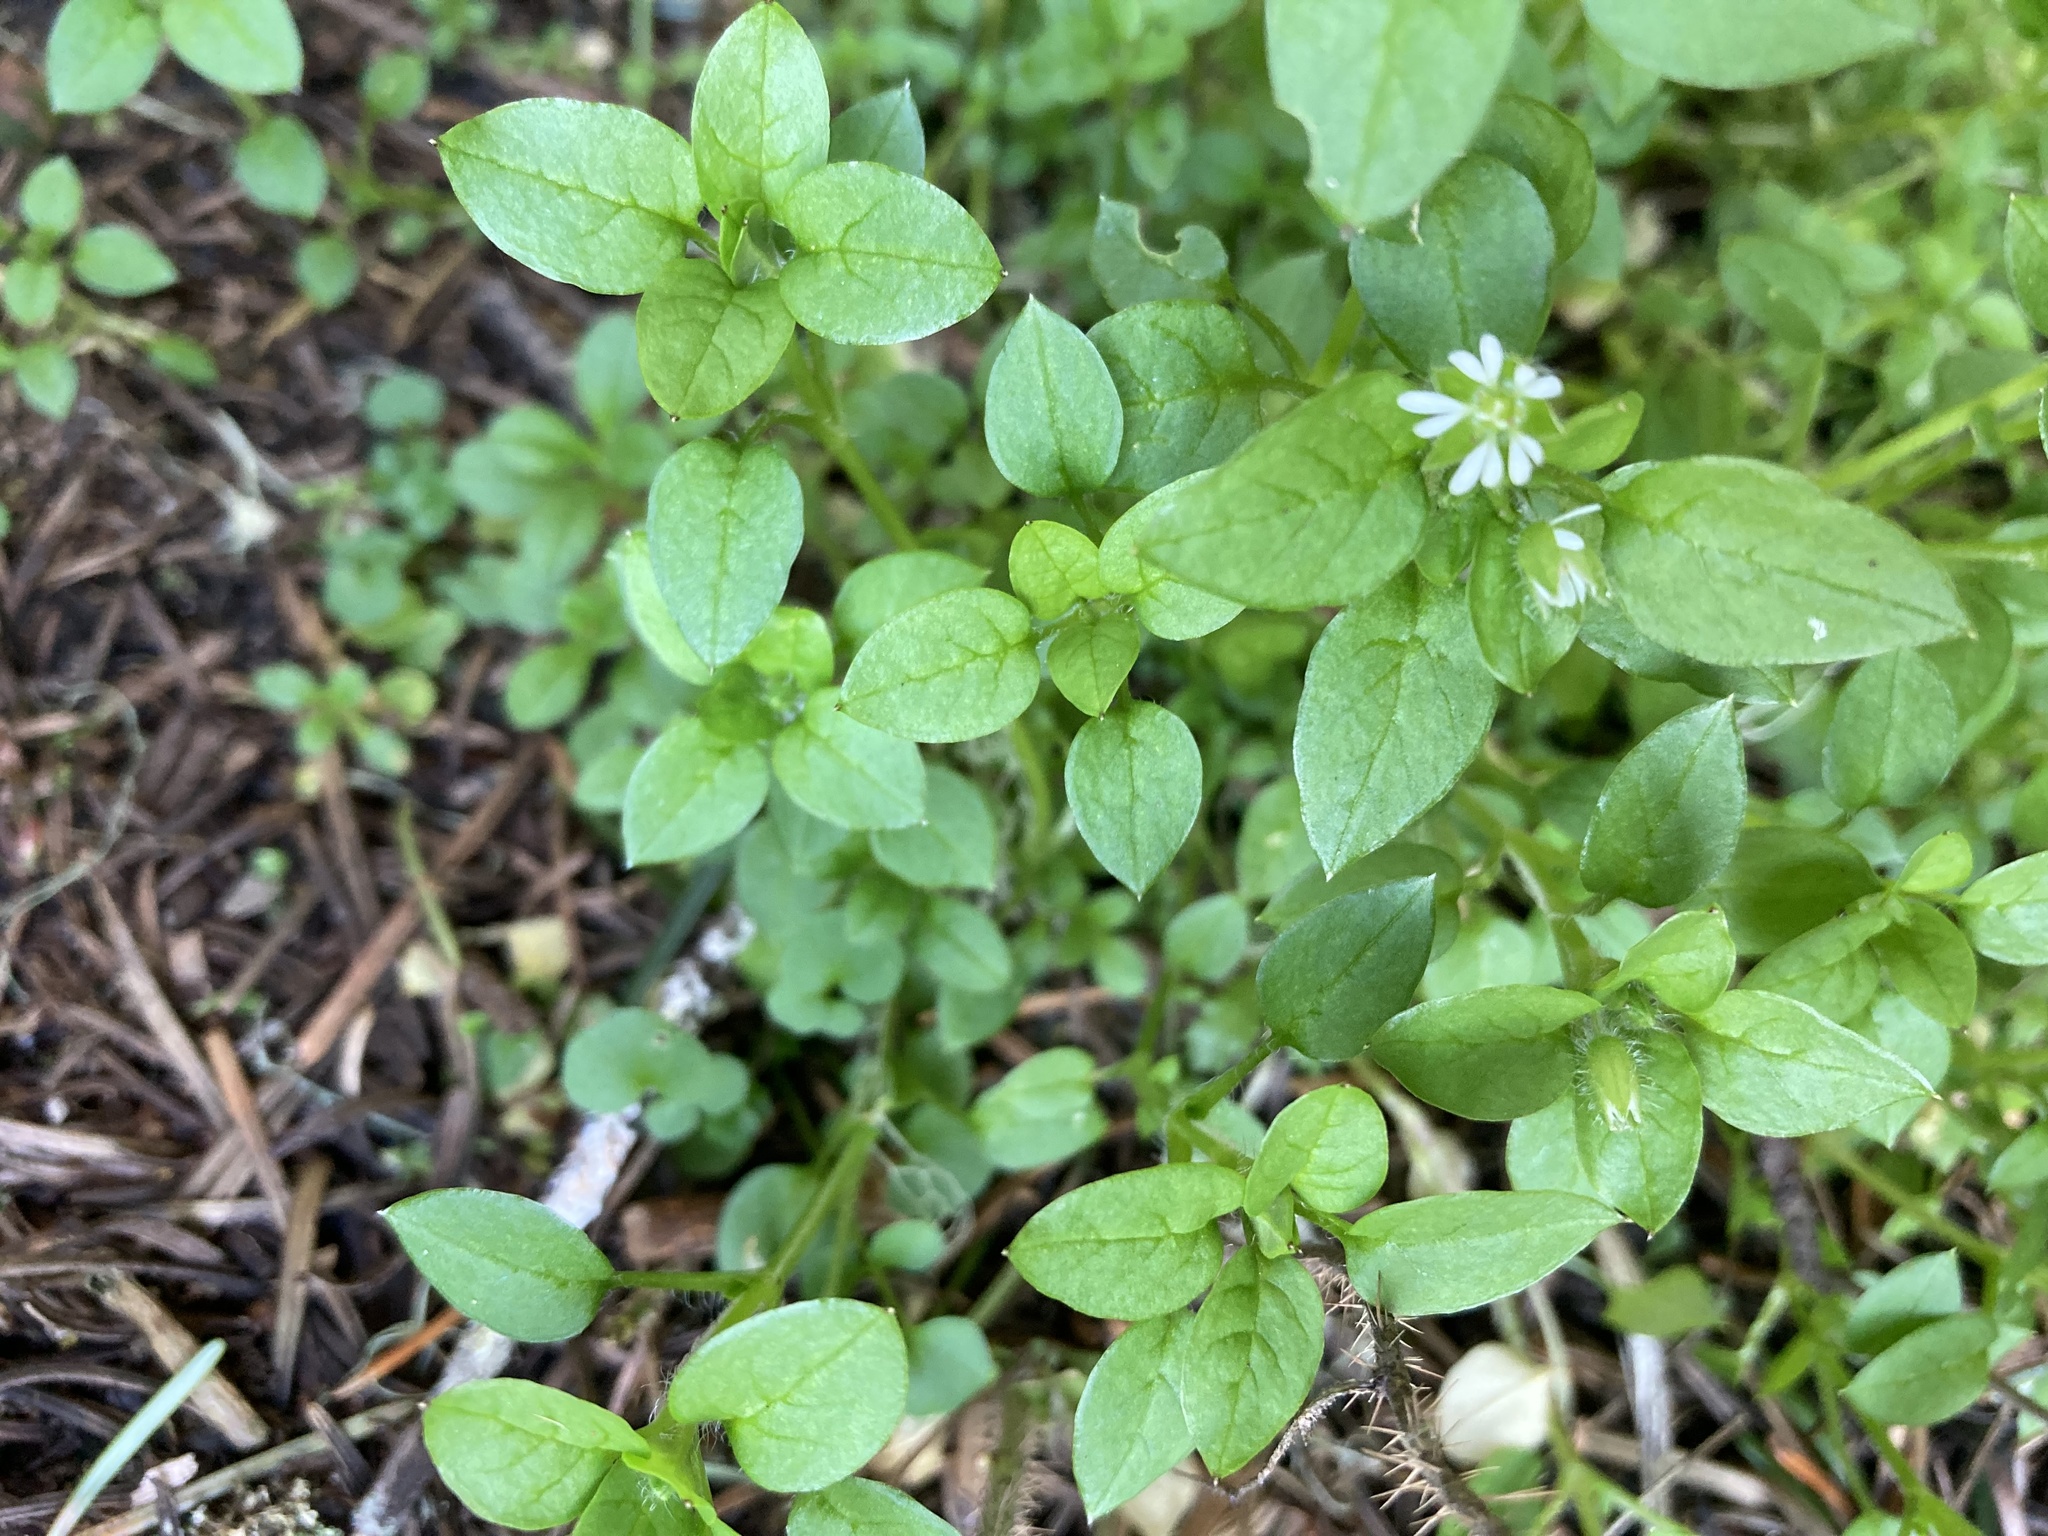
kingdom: Plantae
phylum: Tracheophyta
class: Magnoliopsida
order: Caryophyllales
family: Caryophyllaceae
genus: Stellaria
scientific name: Stellaria media
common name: Common chickweed
